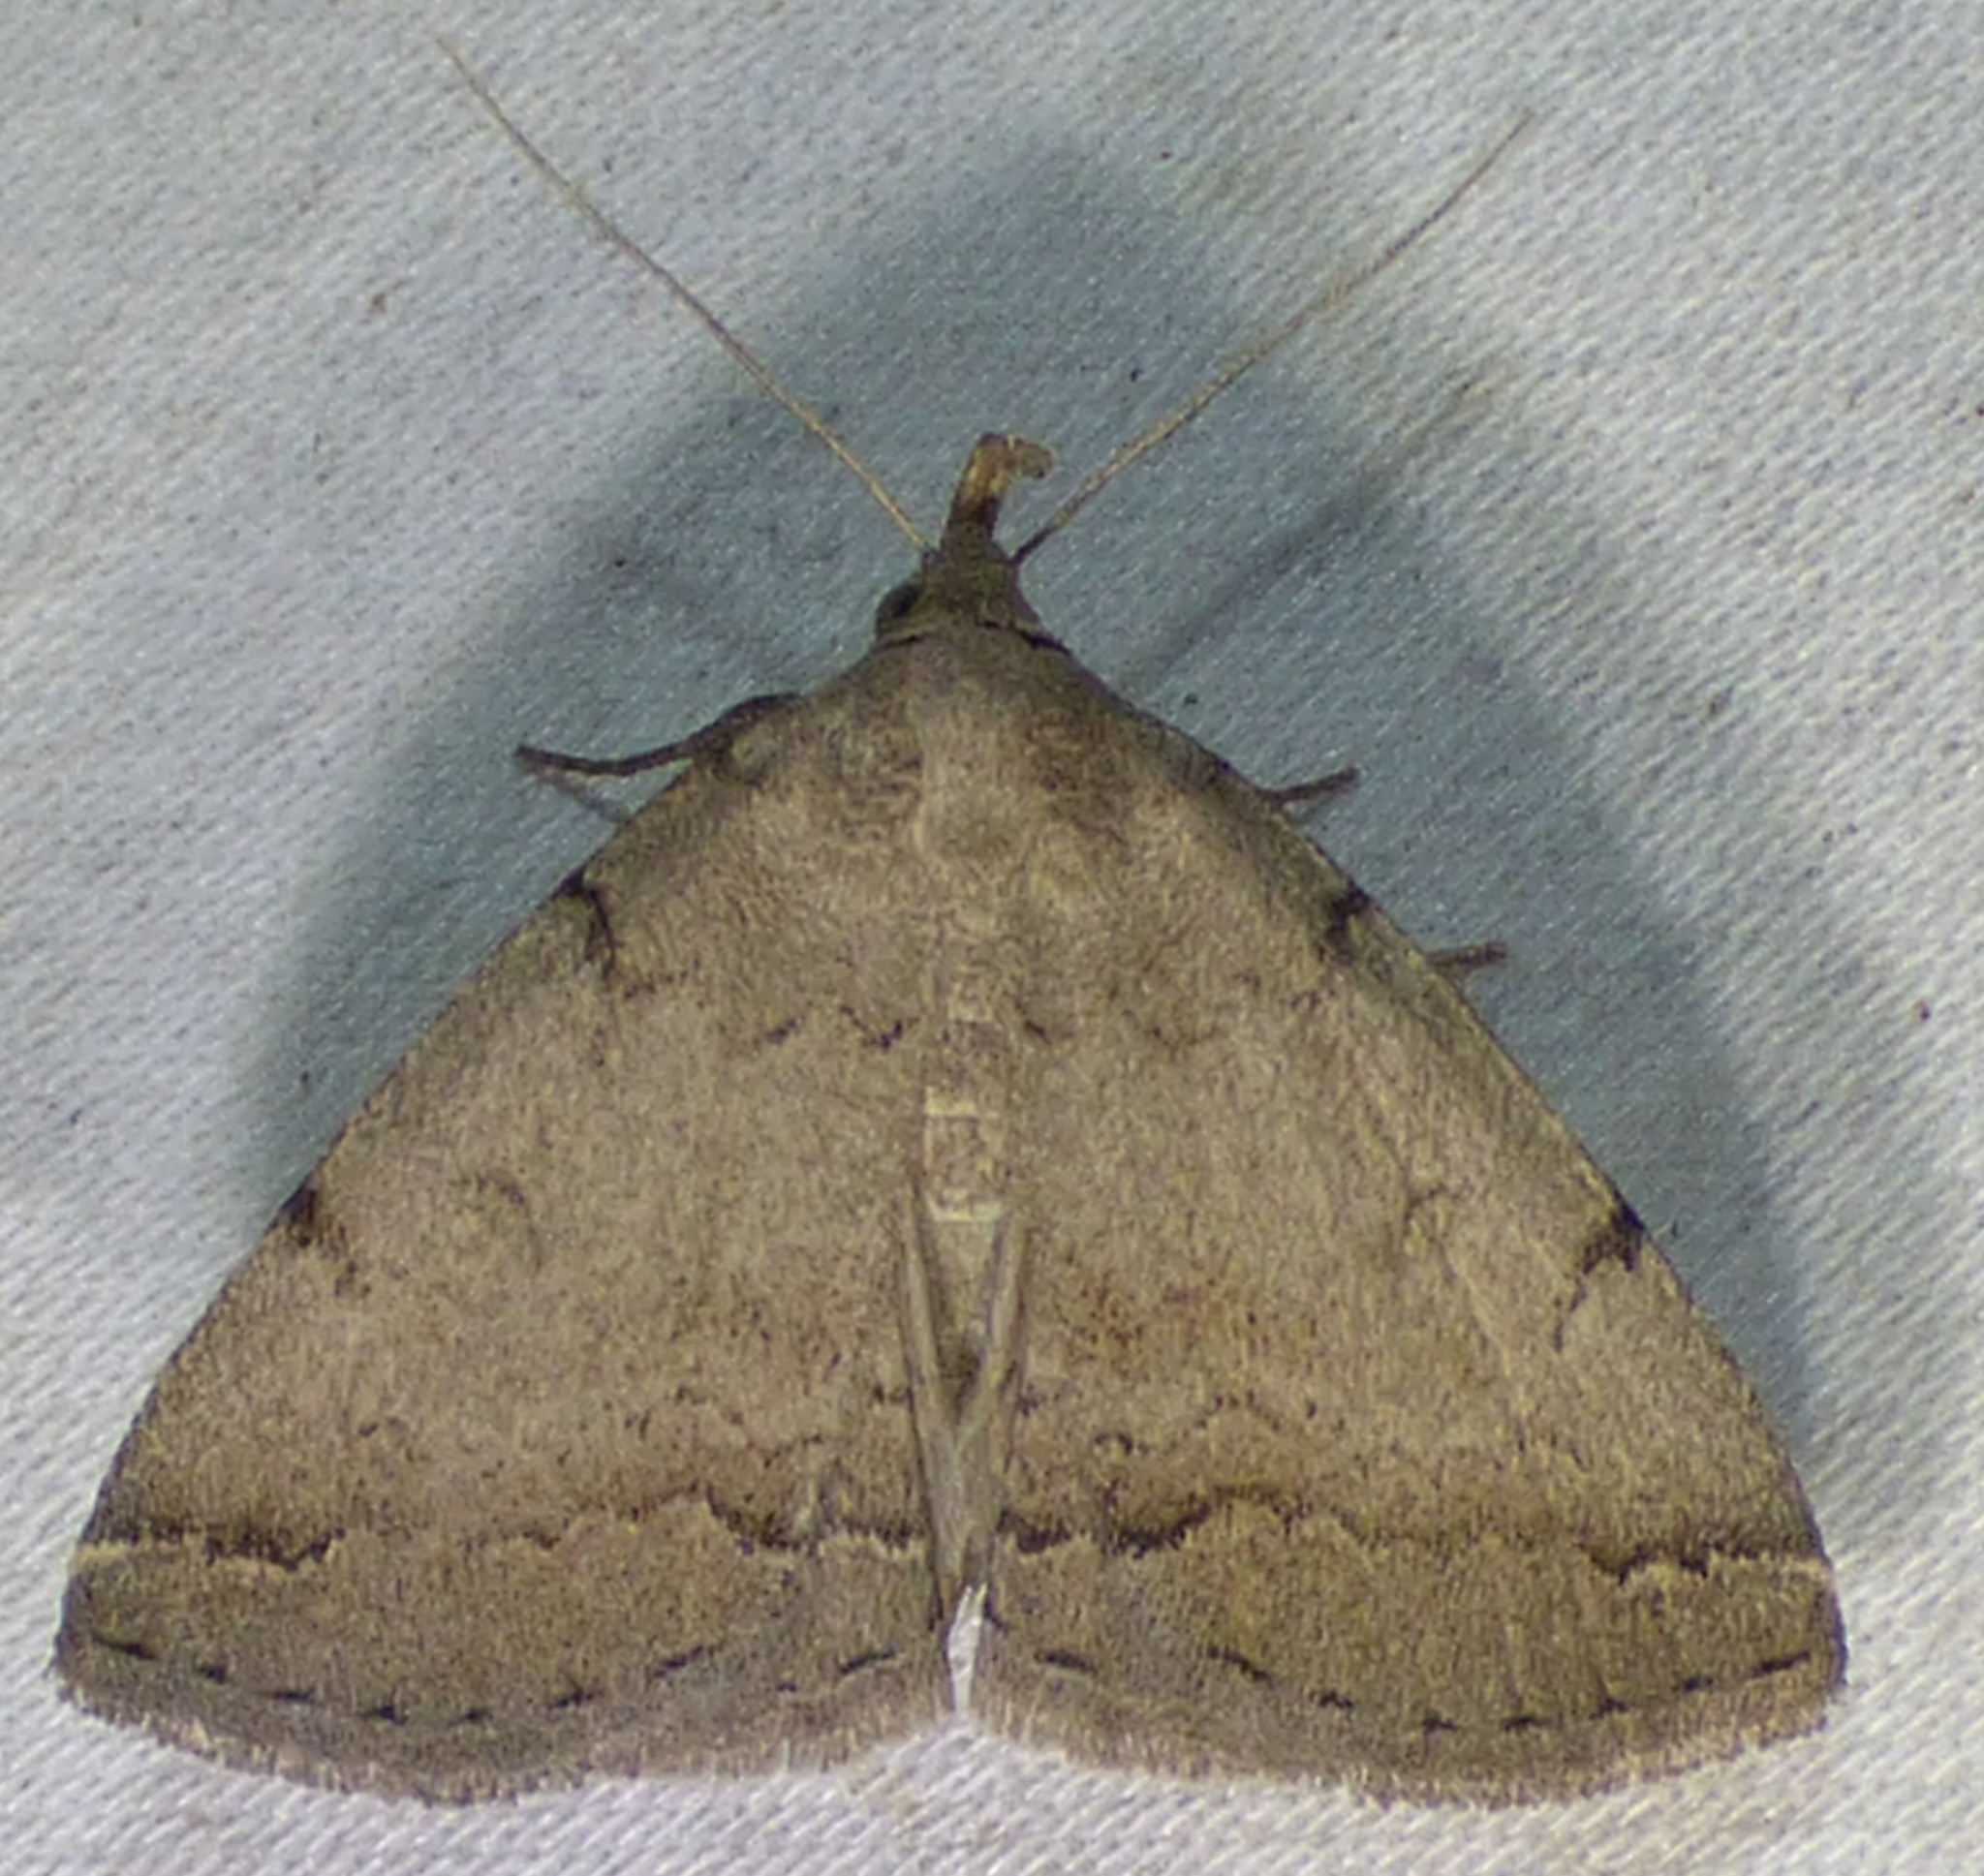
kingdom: Animalia
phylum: Arthropoda
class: Insecta
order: Lepidoptera
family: Erebidae
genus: Zanclognatha
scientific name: Zanclognatha theralis
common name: Flagged fan-foot
